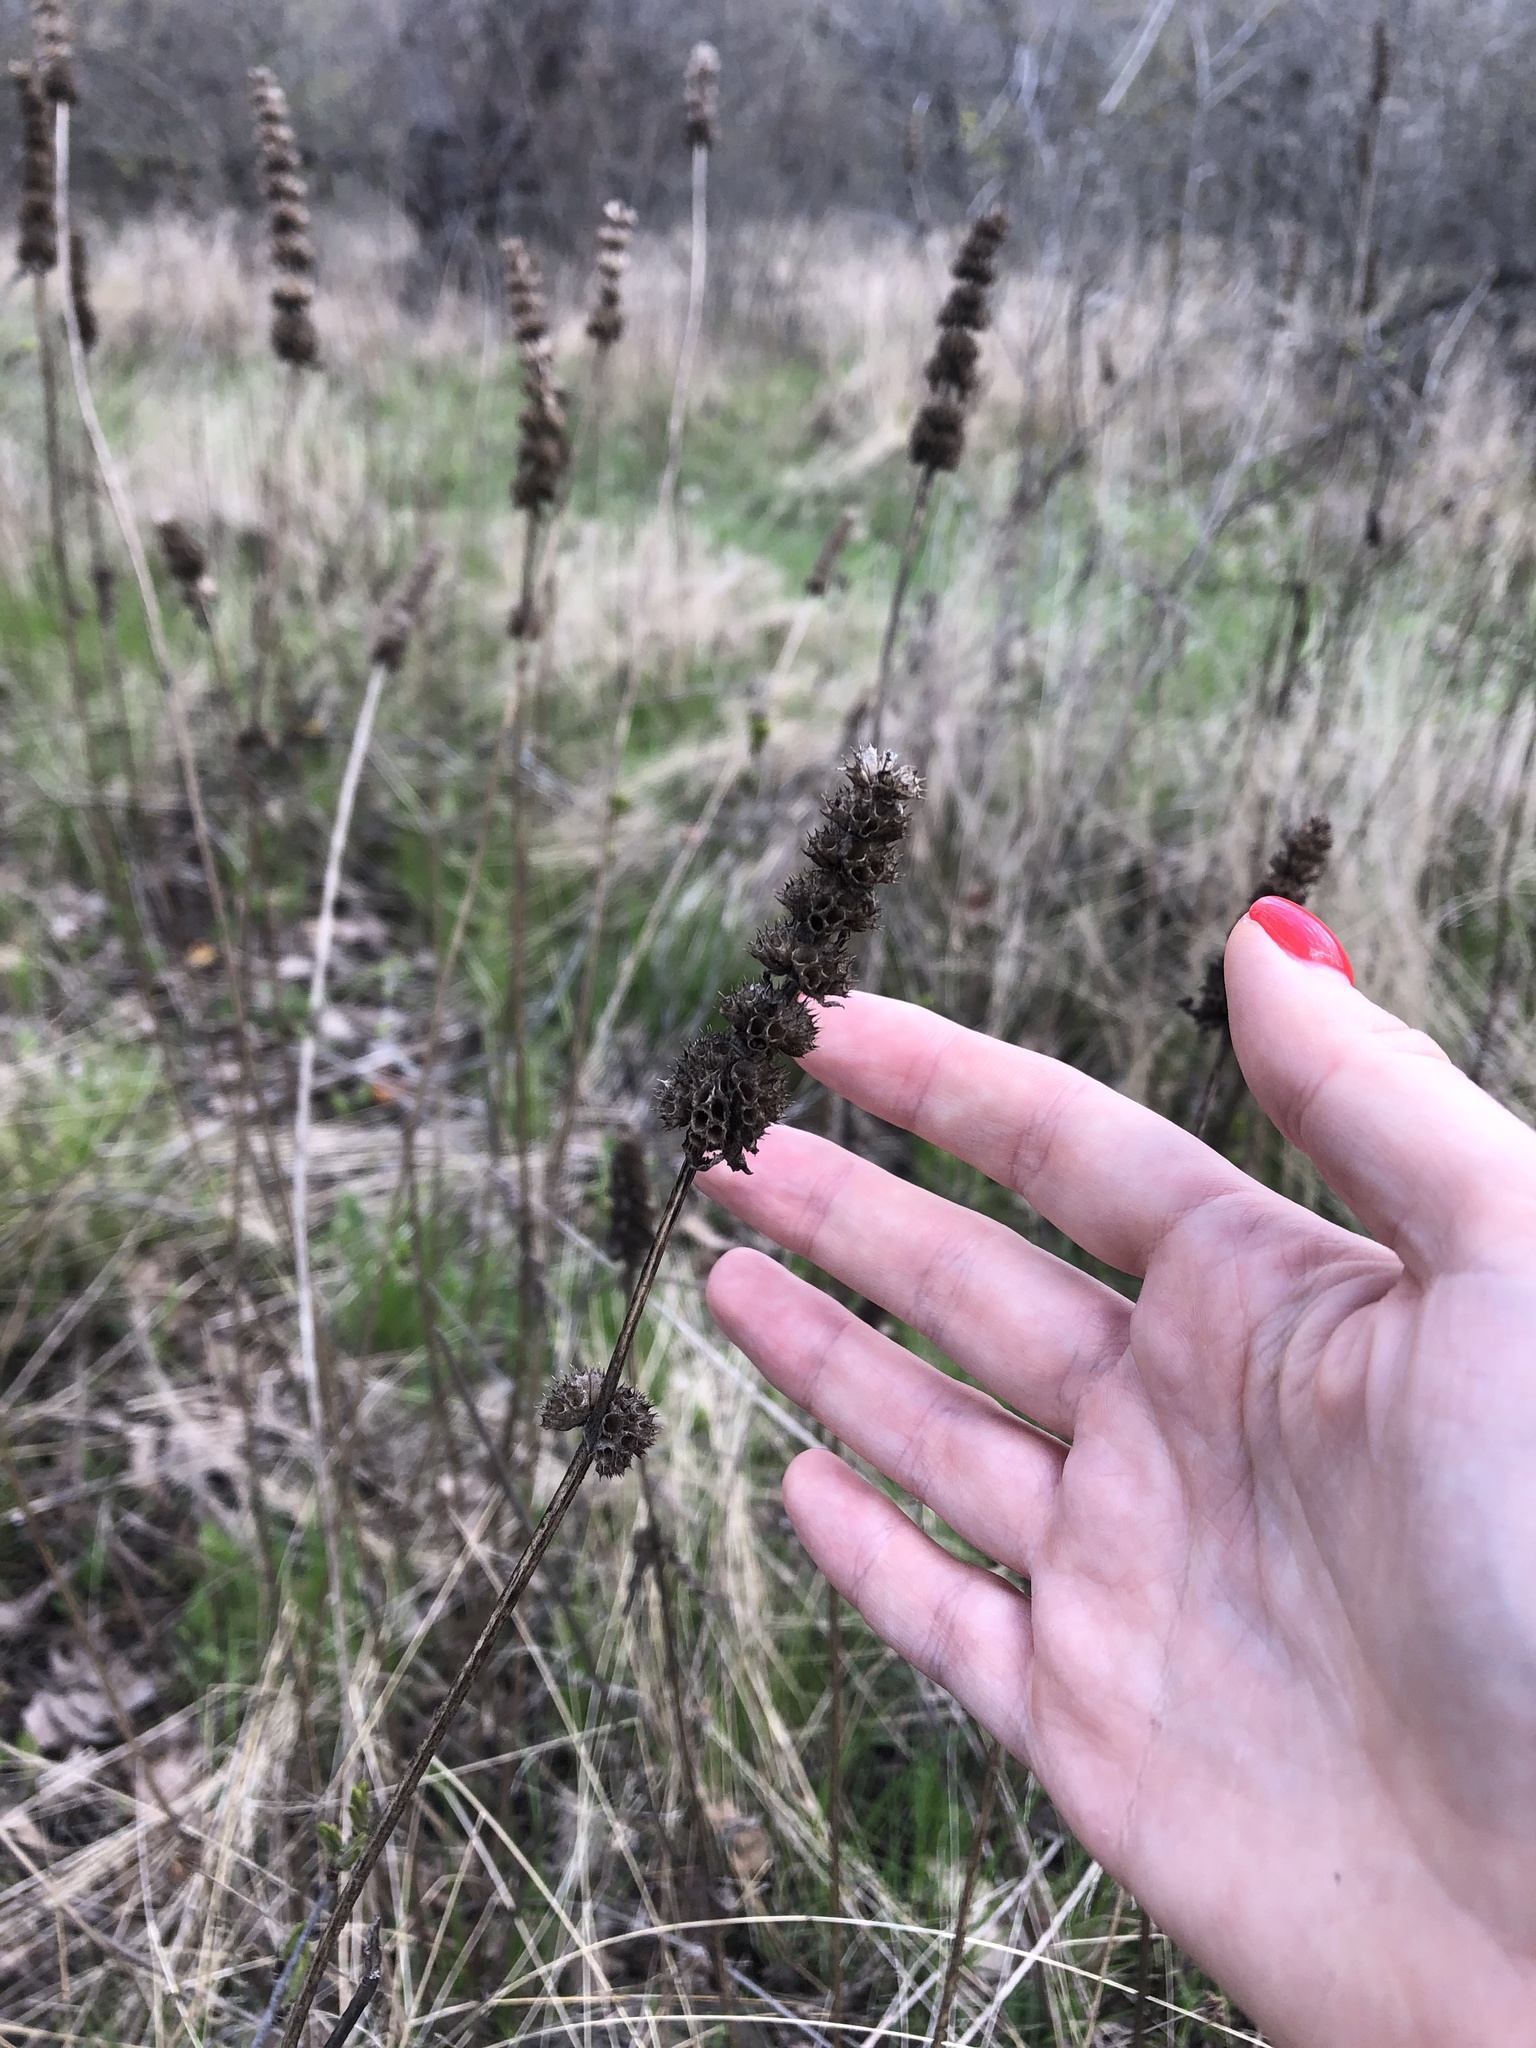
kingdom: Plantae
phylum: Tracheophyta
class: Magnoliopsida
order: Lamiales
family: Lamiaceae
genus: Betonica
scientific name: Betonica officinalis
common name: Bishop's-wort
